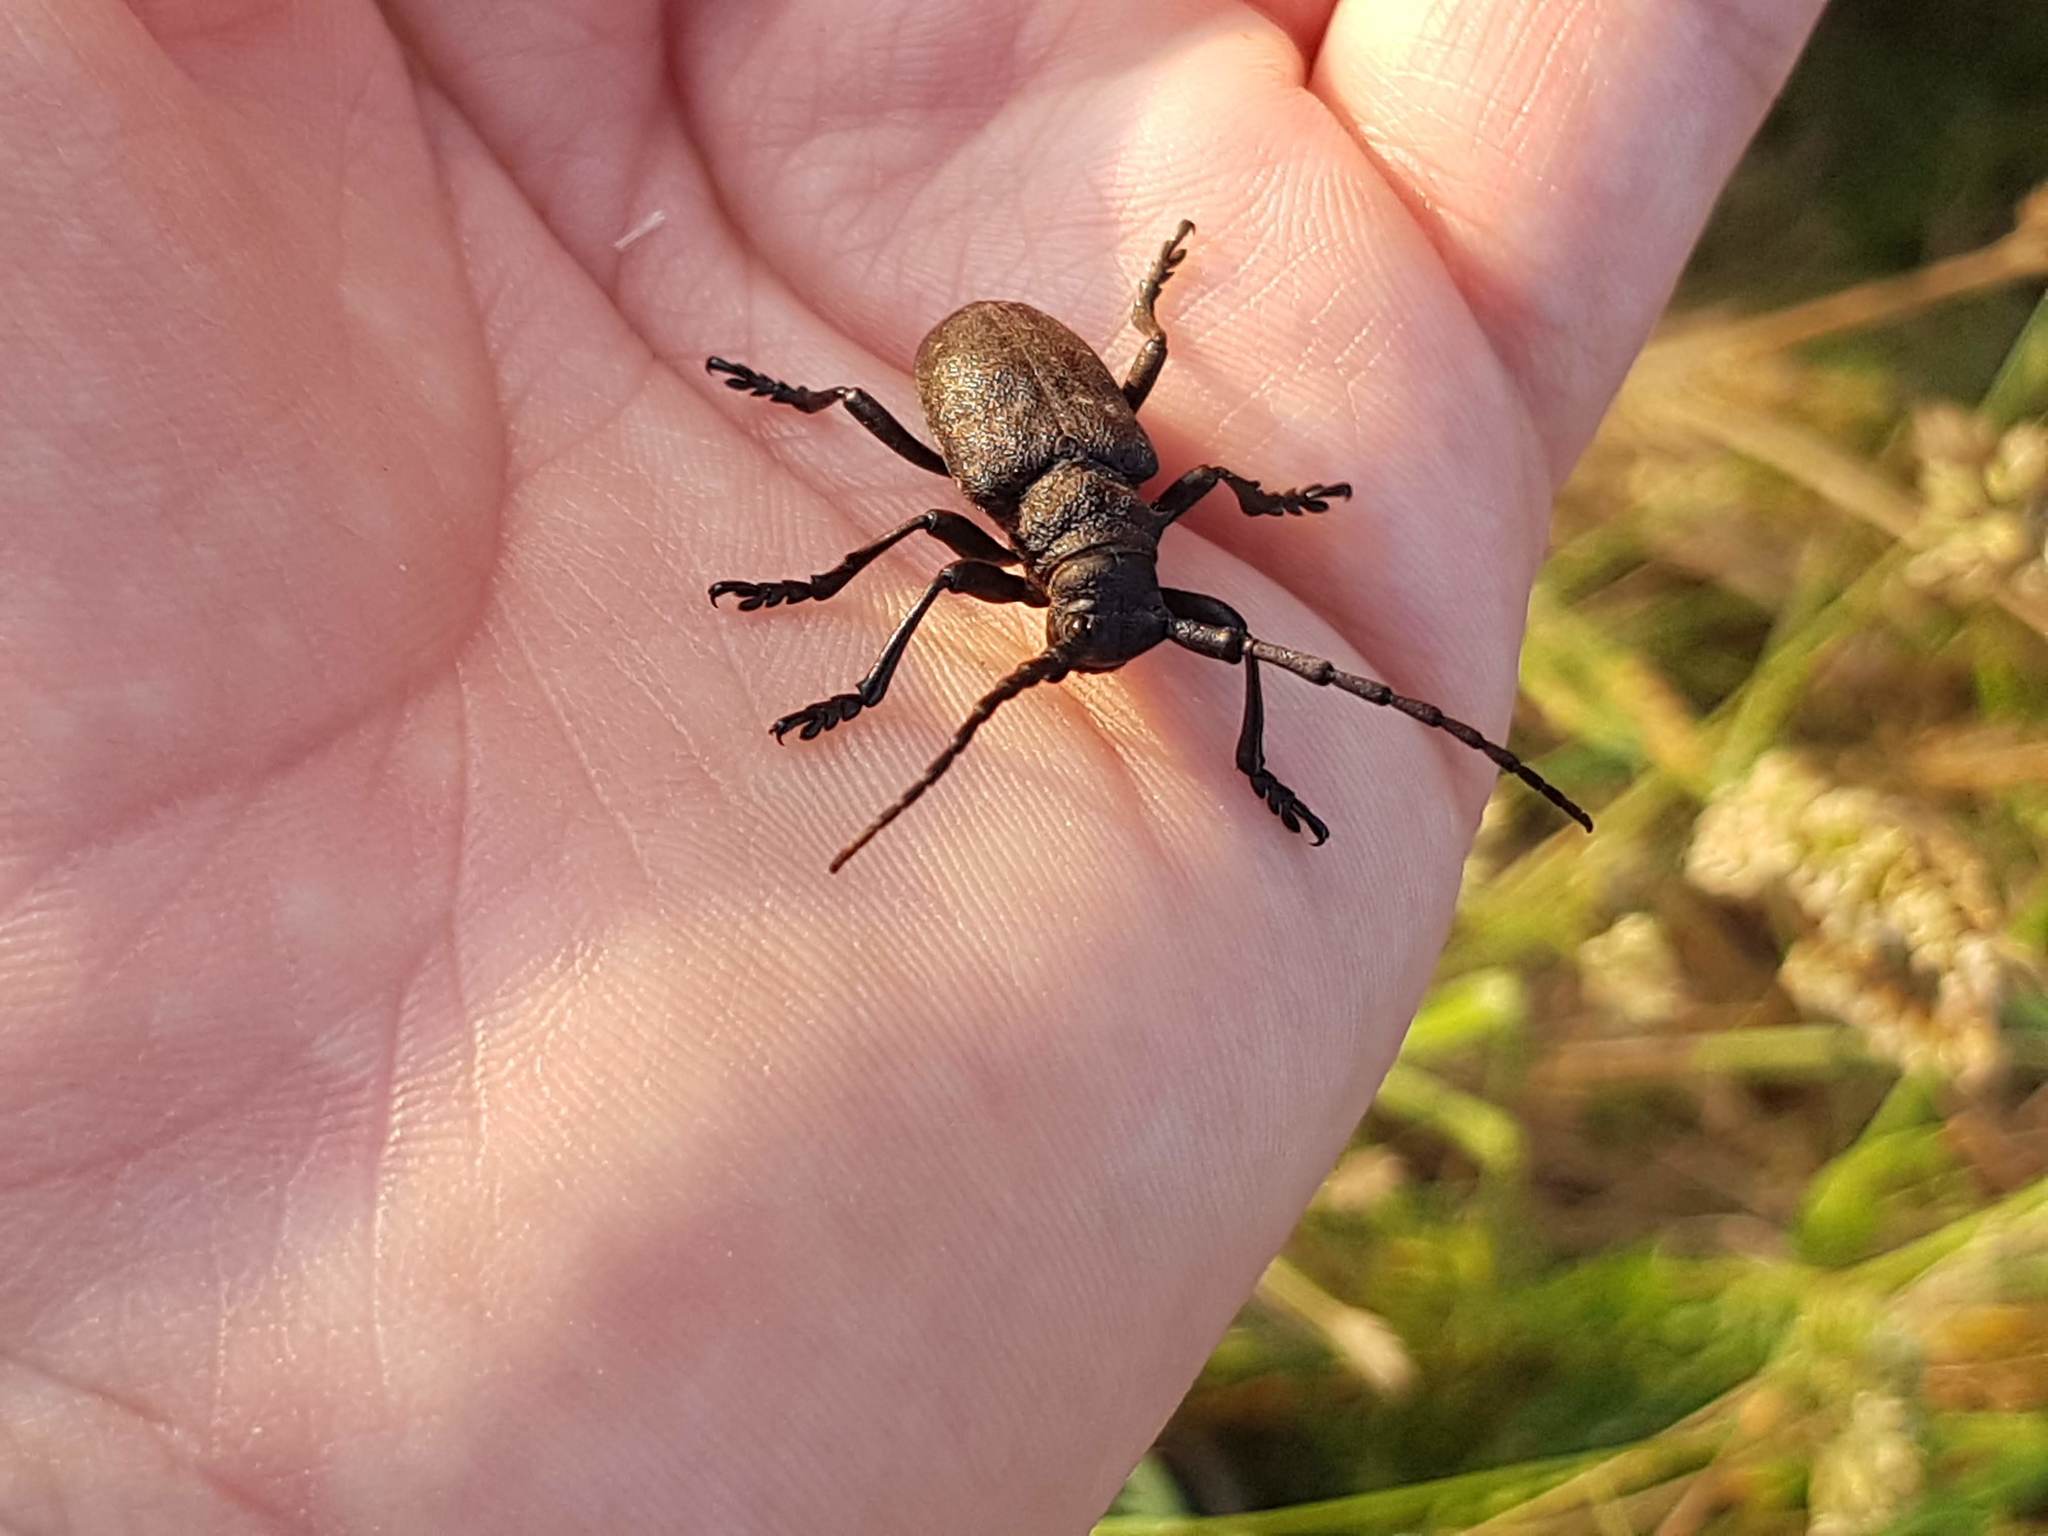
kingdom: Animalia
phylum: Arthropoda
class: Insecta
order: Coleoptera
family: Cerambycidae
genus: Lamia
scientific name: Lamia textor
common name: Weaver beetle
